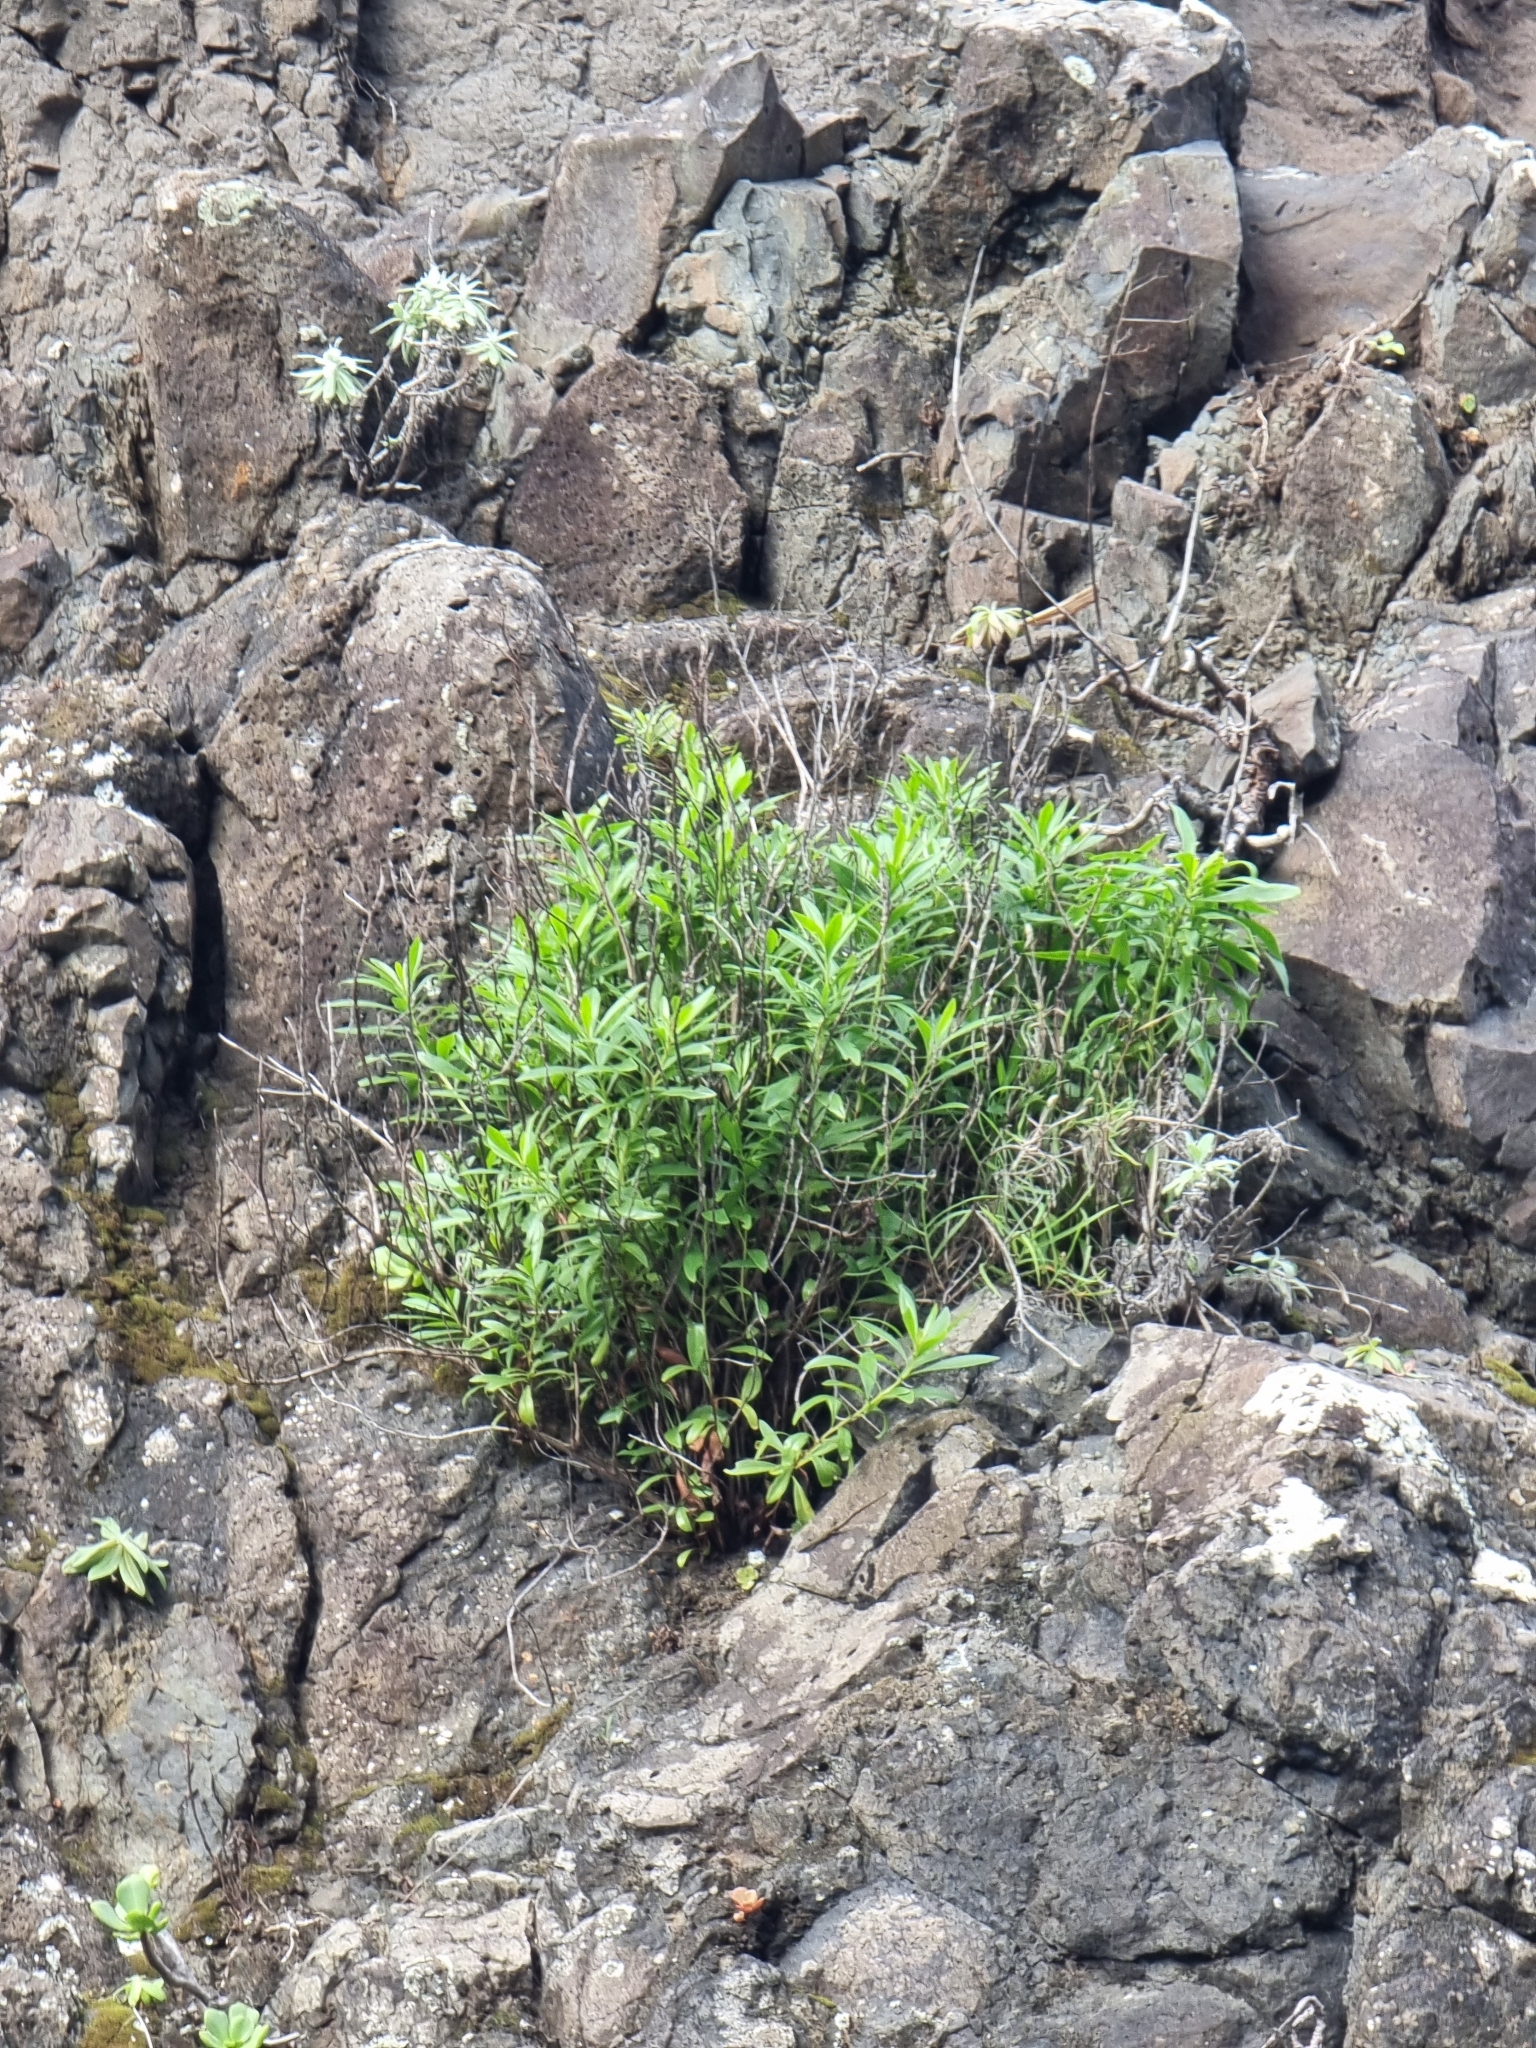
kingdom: Plantae
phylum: Tracheophyta
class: Magnoliopsida
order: Lamiales
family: Plantaginaceae
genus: Globularia
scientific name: Globularia salicina
